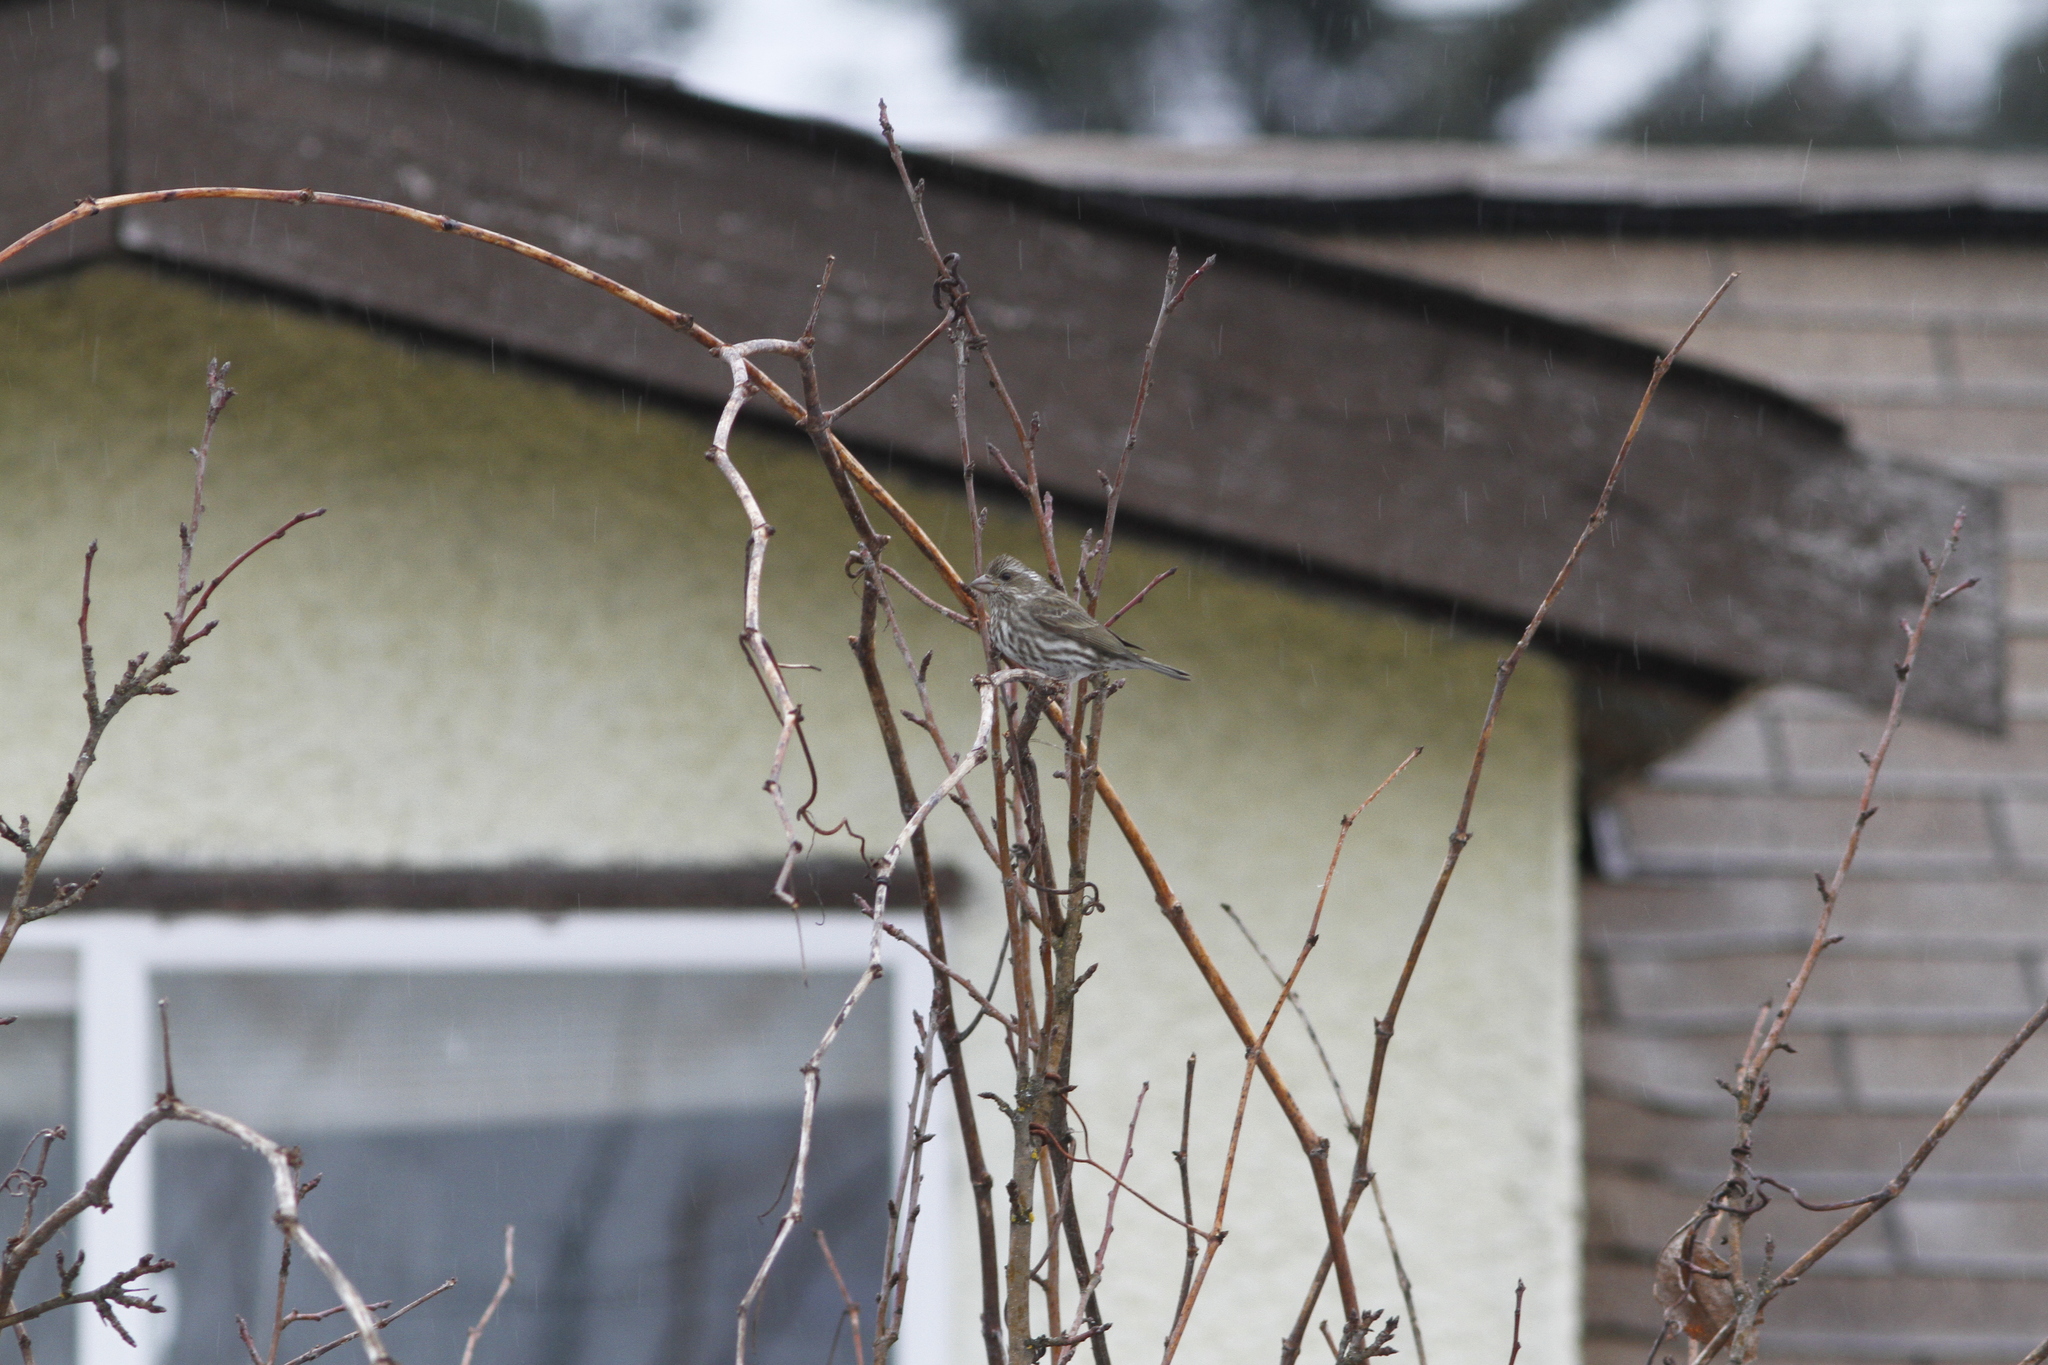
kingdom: Animalia
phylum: Chordata
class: Aves
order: Passeriformes
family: Fringillidae
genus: Haemorhous
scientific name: Haemorhous purpureus
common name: Purple finch
